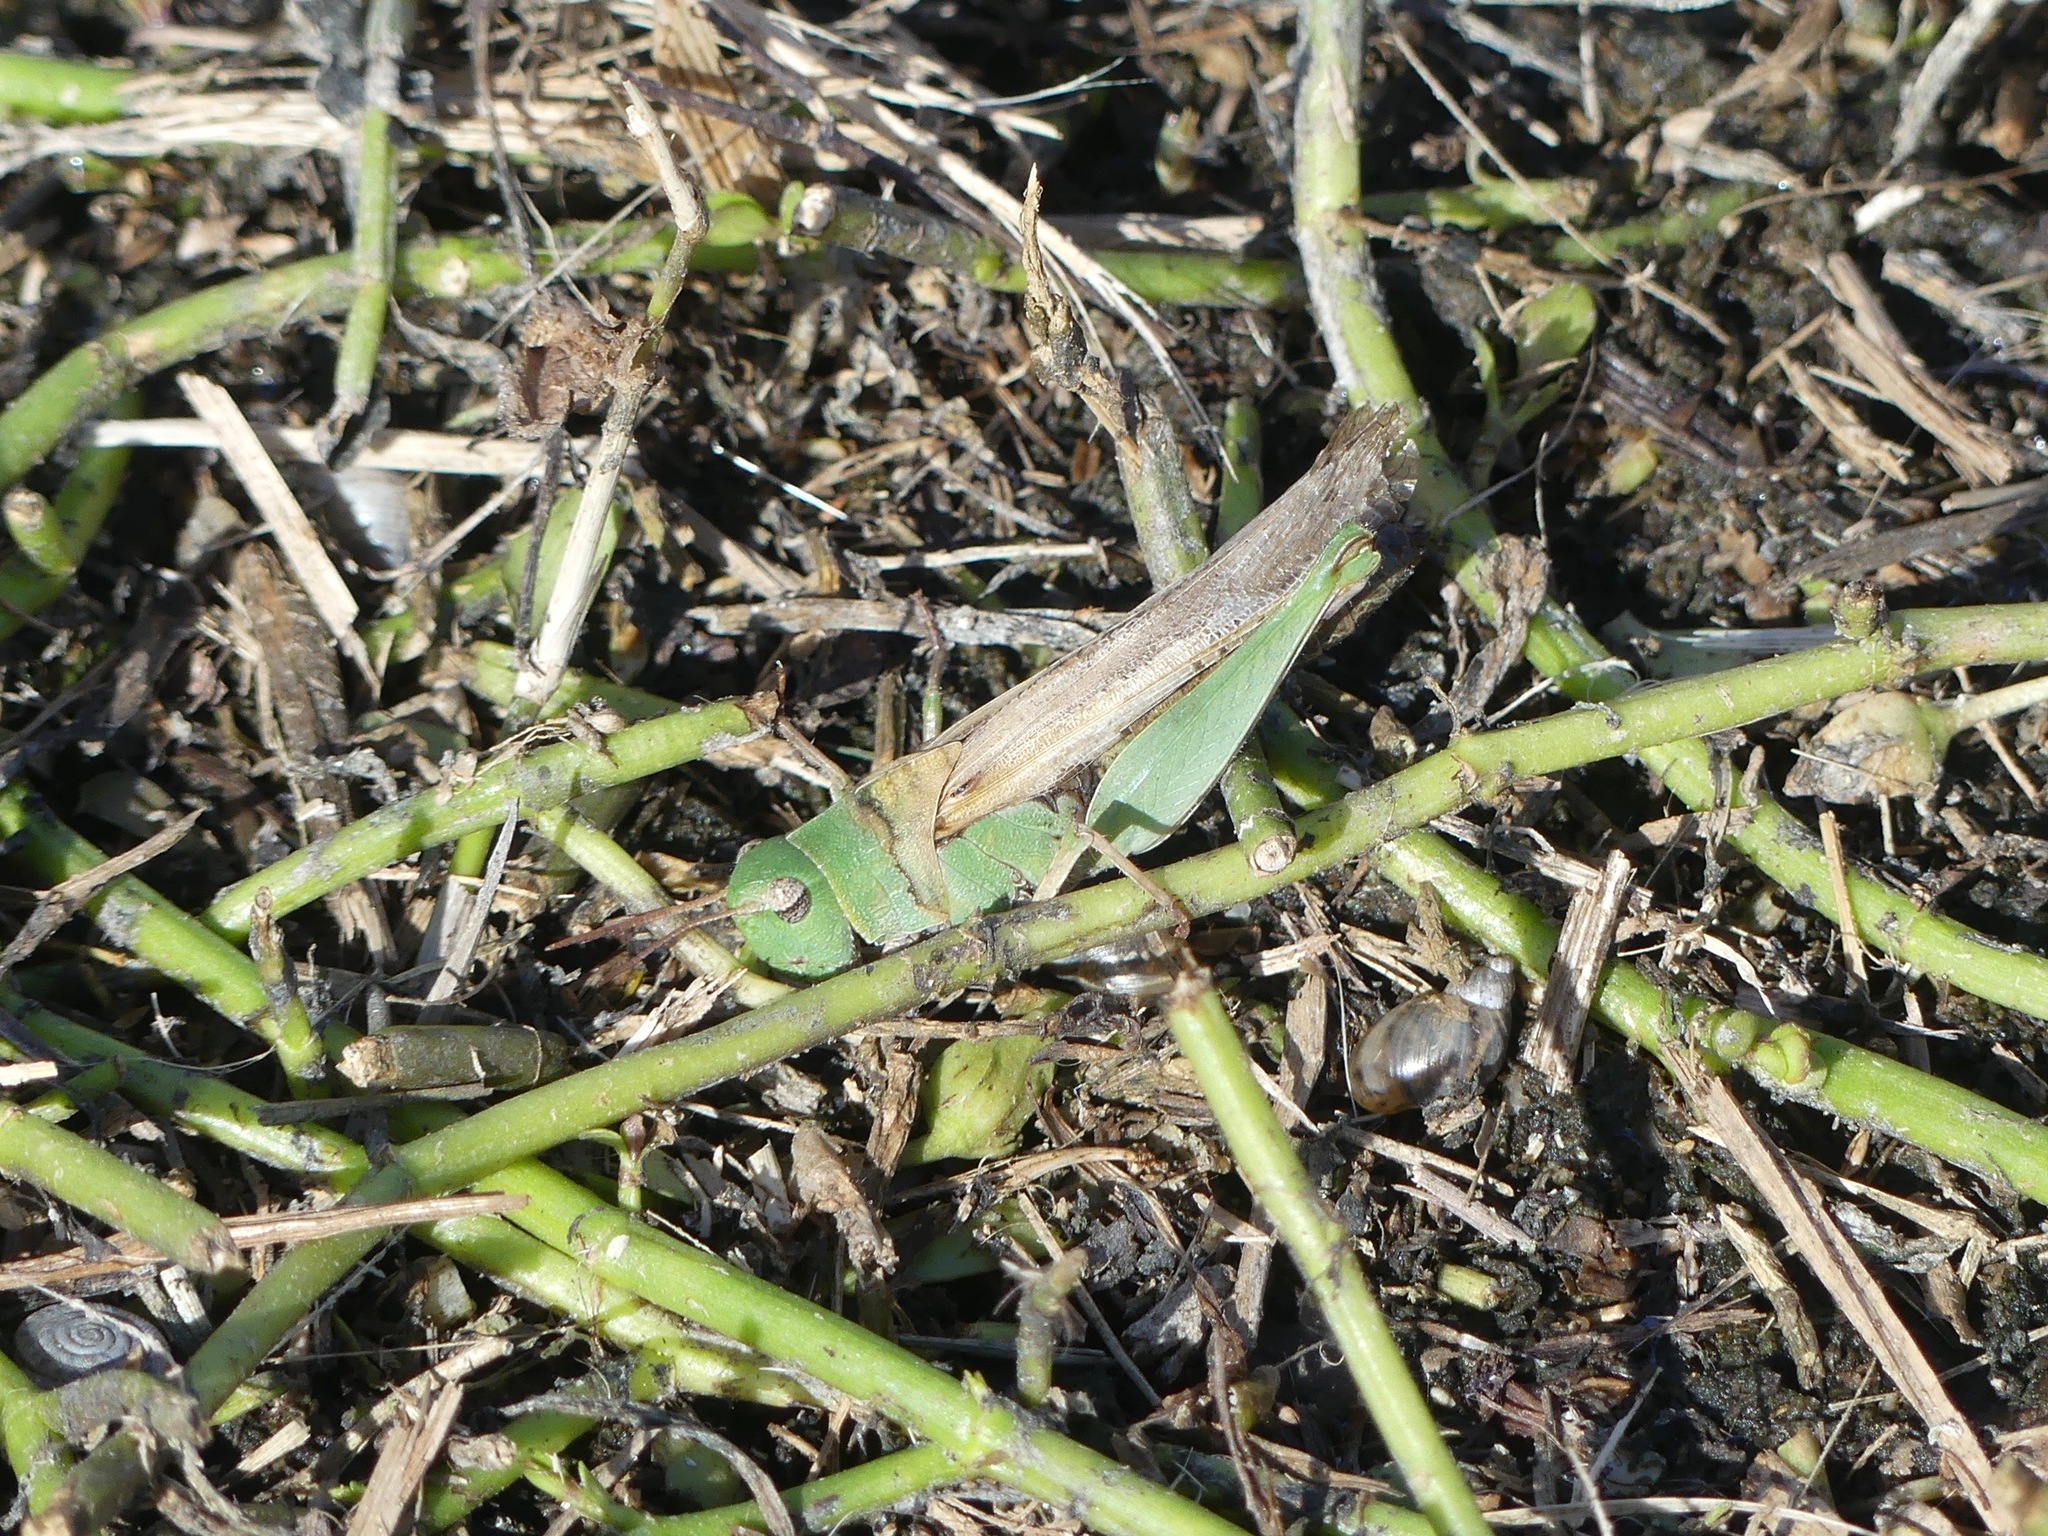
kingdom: Animalia
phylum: Arthropoda
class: Insecta
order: Orthoptera
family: Acrididae
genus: Chortophaga
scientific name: Chortophaga viridifasciata
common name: Green-striped grasshopper
